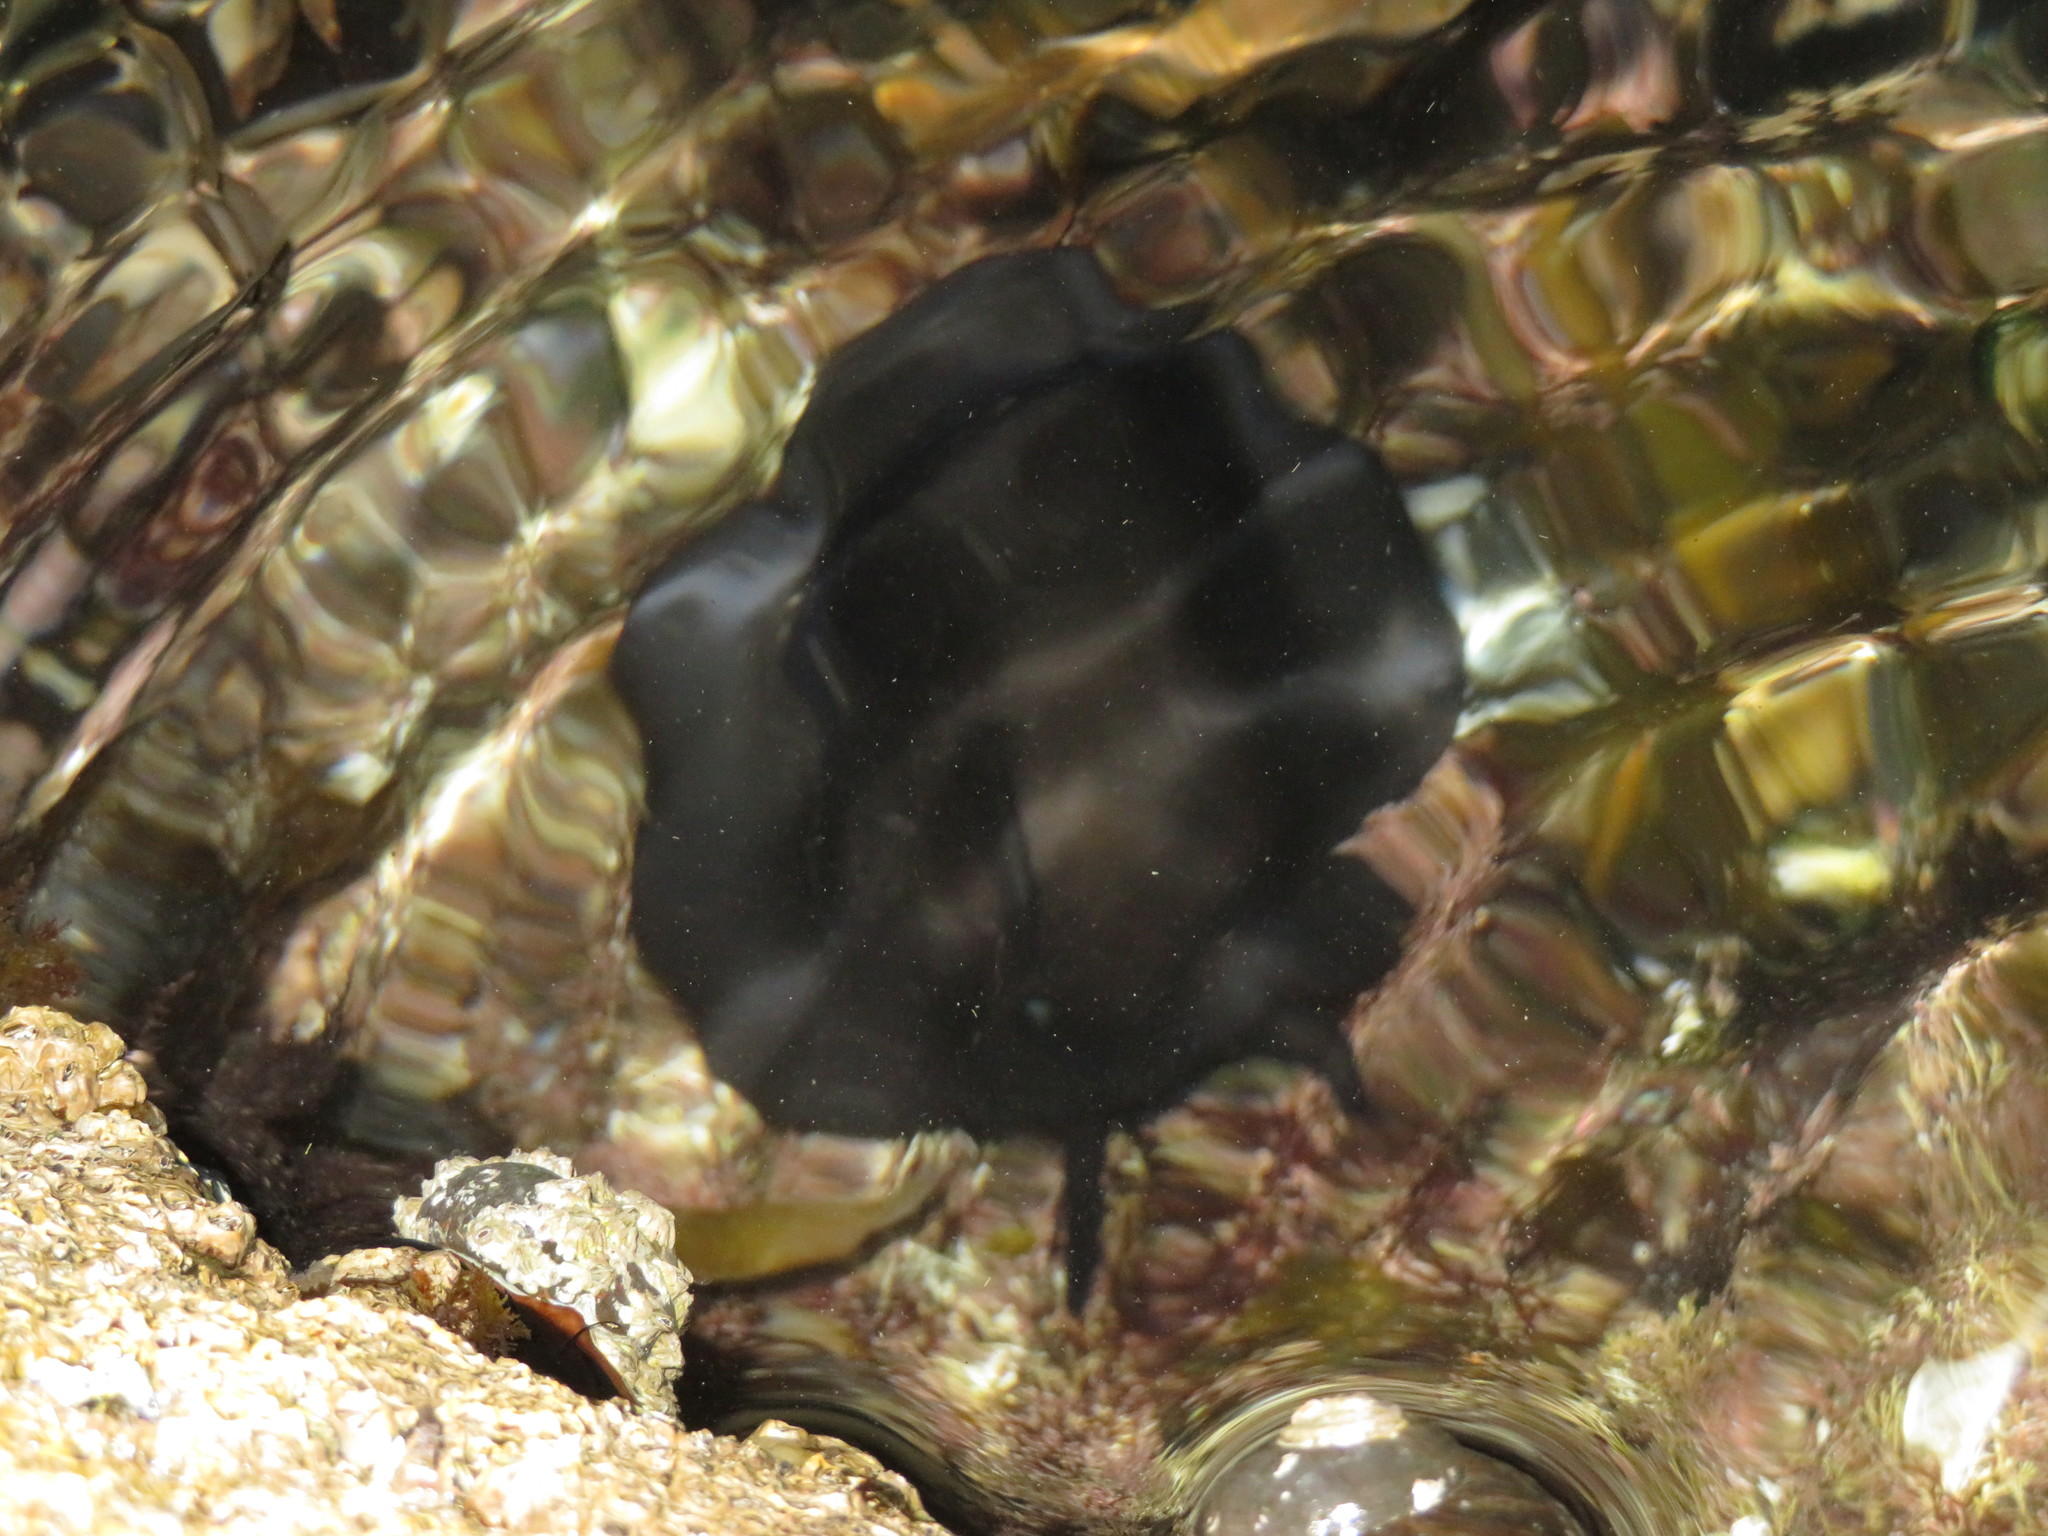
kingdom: Animalia
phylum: Mollusca
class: Gastropoda
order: Lepetellida
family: Fissurellidae
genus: Scutus
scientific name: Scutus breviculus
